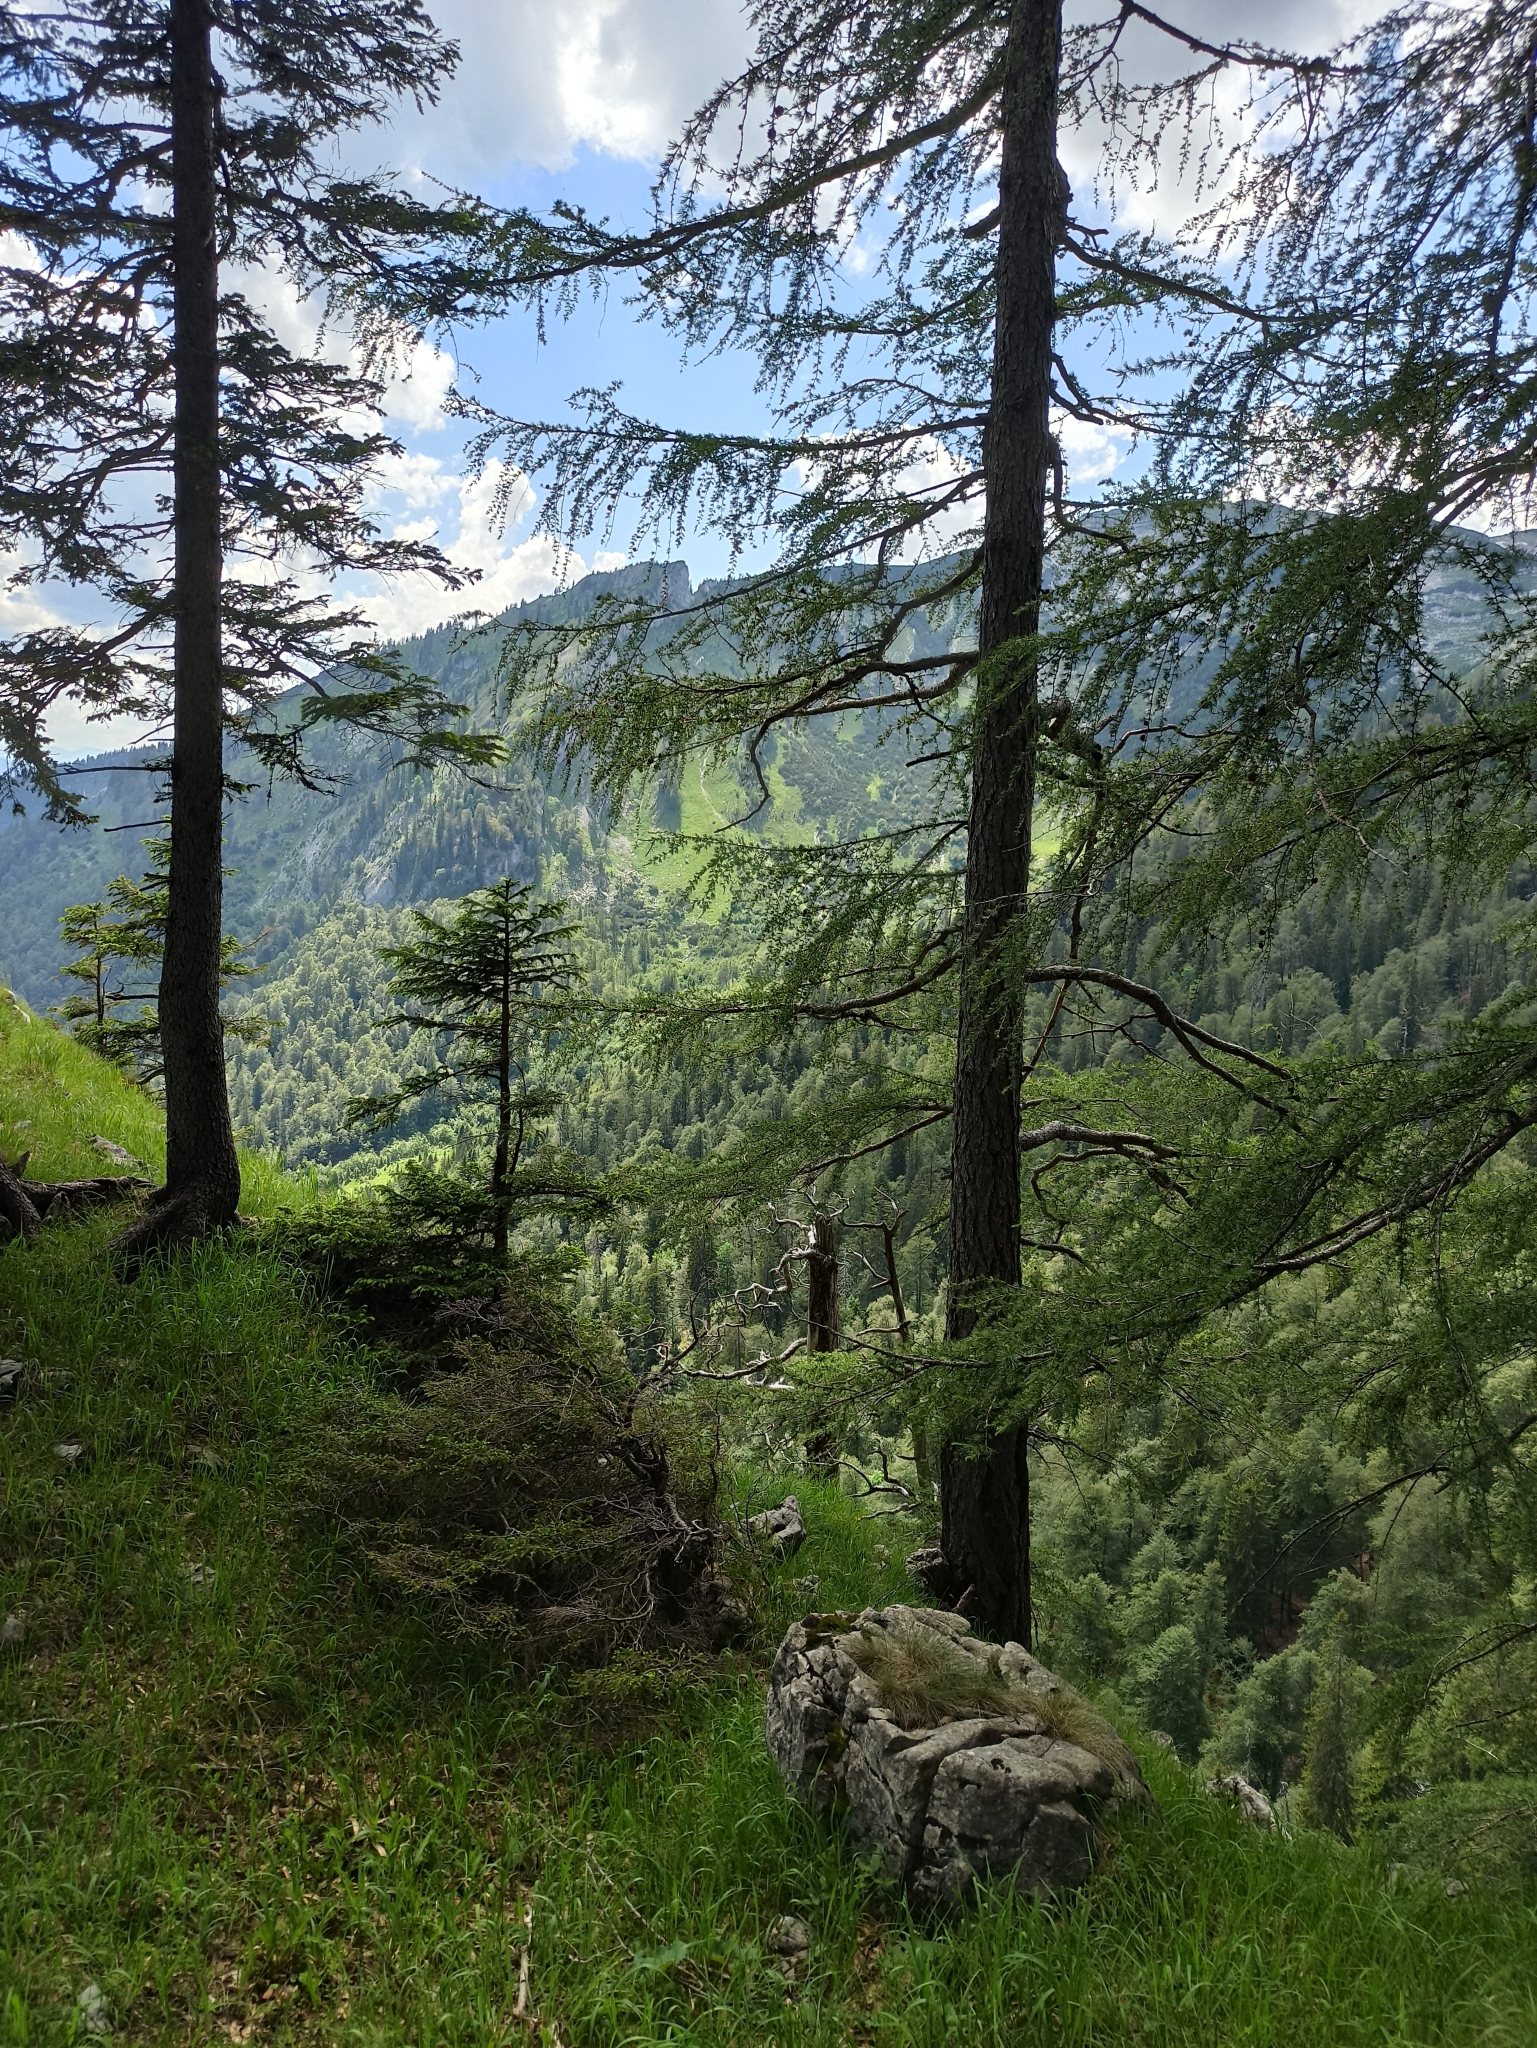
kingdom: Plantae
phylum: Tracheophyta
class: Pinopsida
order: Pinales
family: Pinaceae
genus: Larix
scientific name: Larix decidua
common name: European larch
